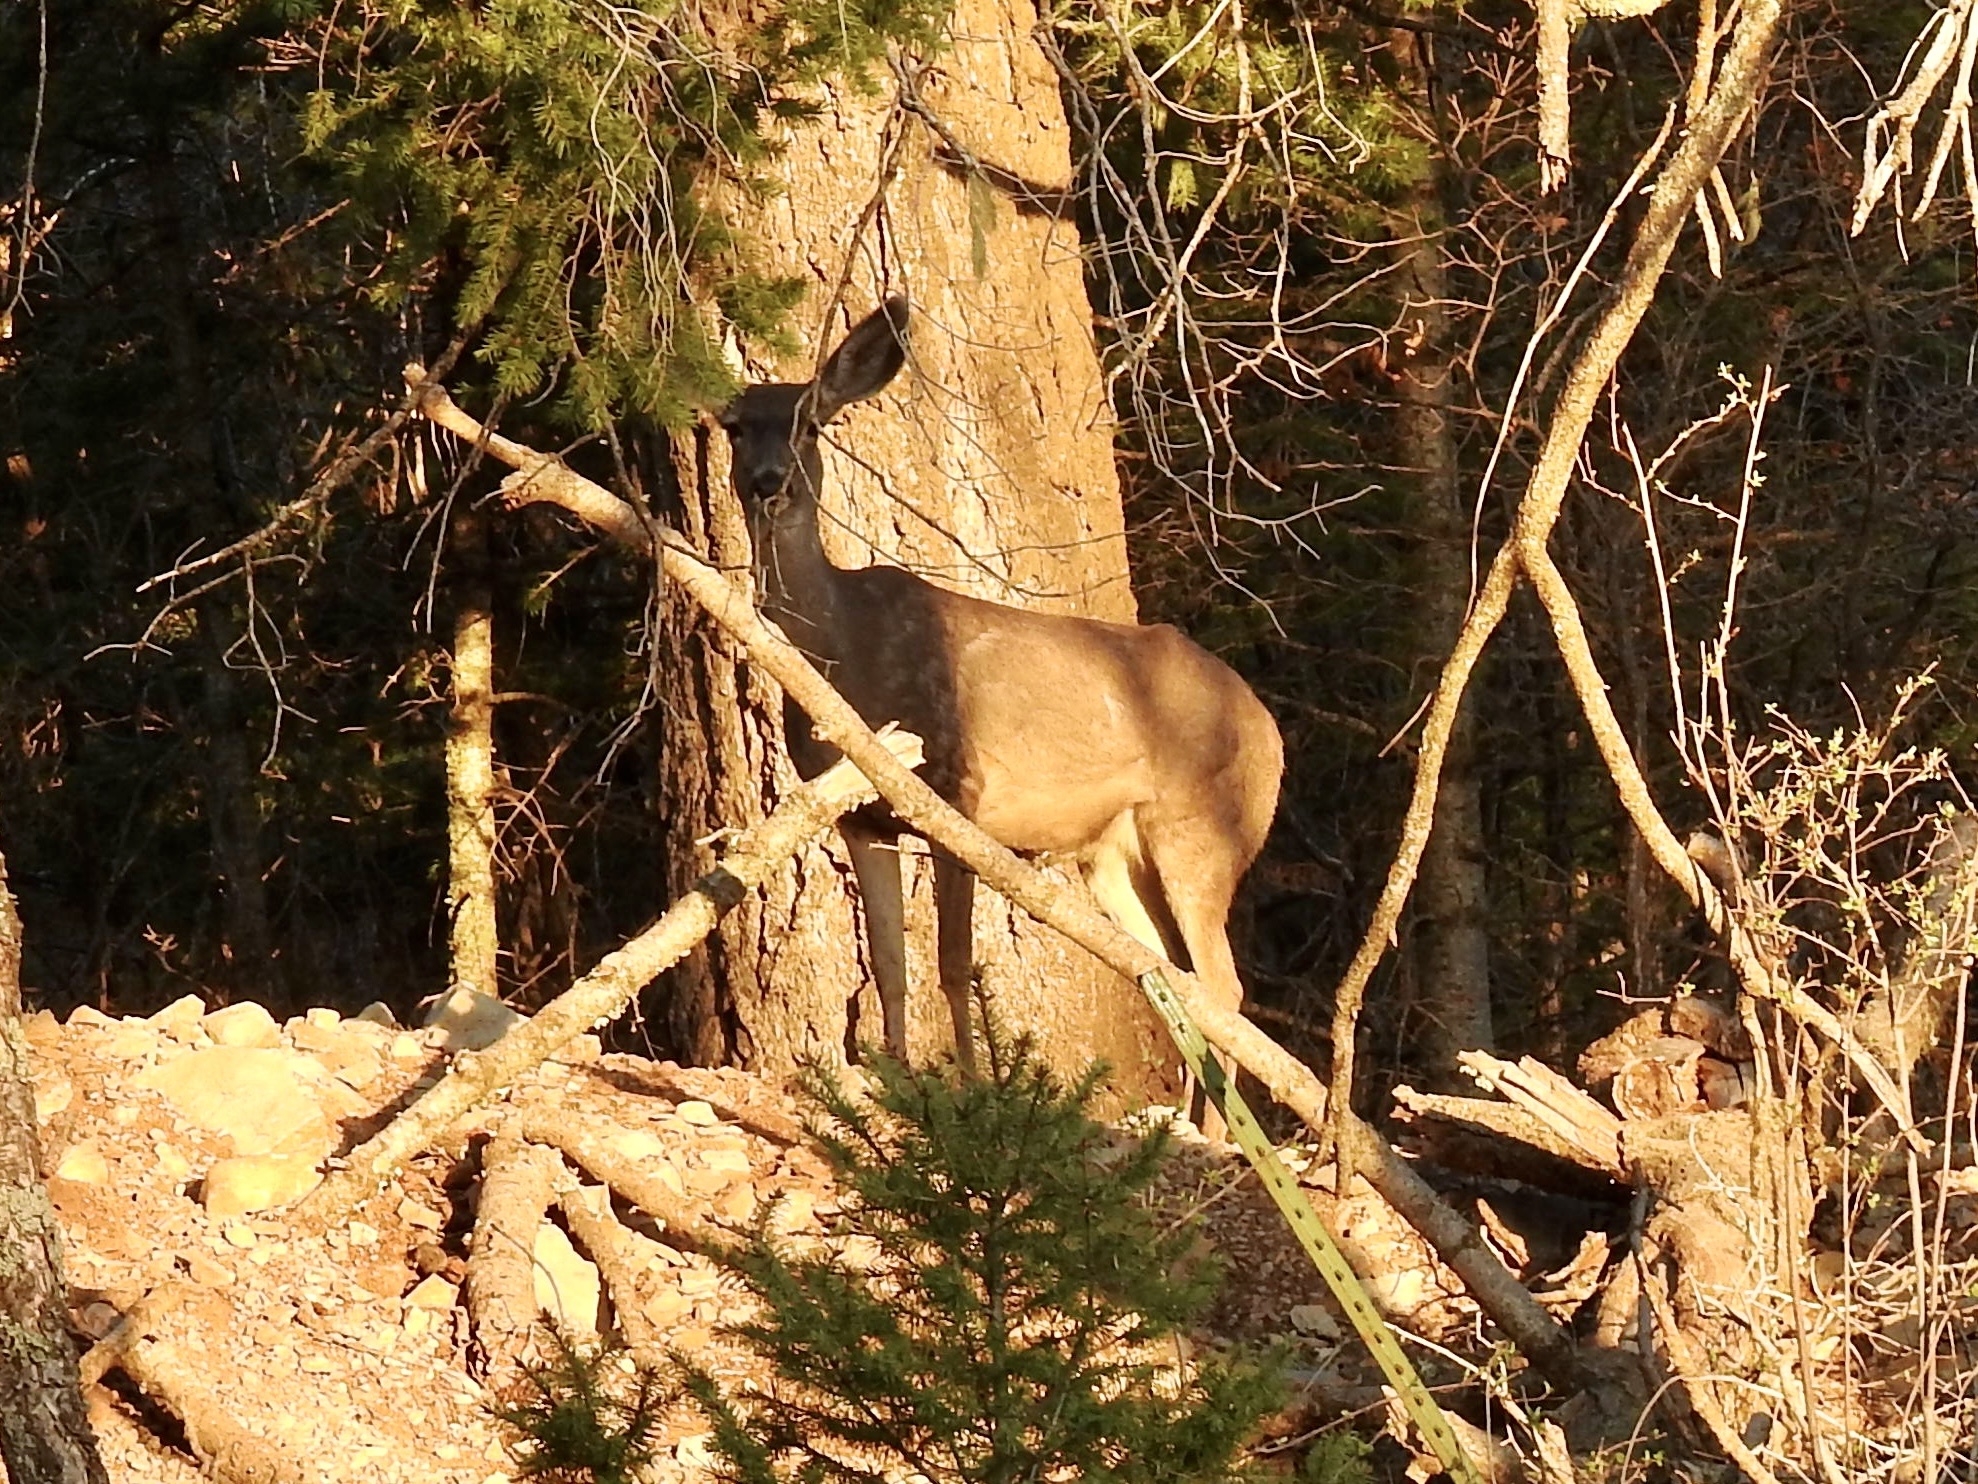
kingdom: Animalia
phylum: Chordata
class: Mammalia
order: Artiodactyla
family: Cervidae
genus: Odocoileus
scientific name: Odocoileus hemionus
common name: Mule deer
